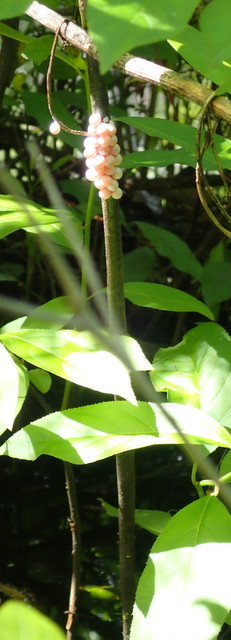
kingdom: Animalia
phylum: Mollusca
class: Gastropoda
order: Architaenioglossa
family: Ampullariidae
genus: Pomacea
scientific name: Pomacea paludosa
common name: Florida applesnail
